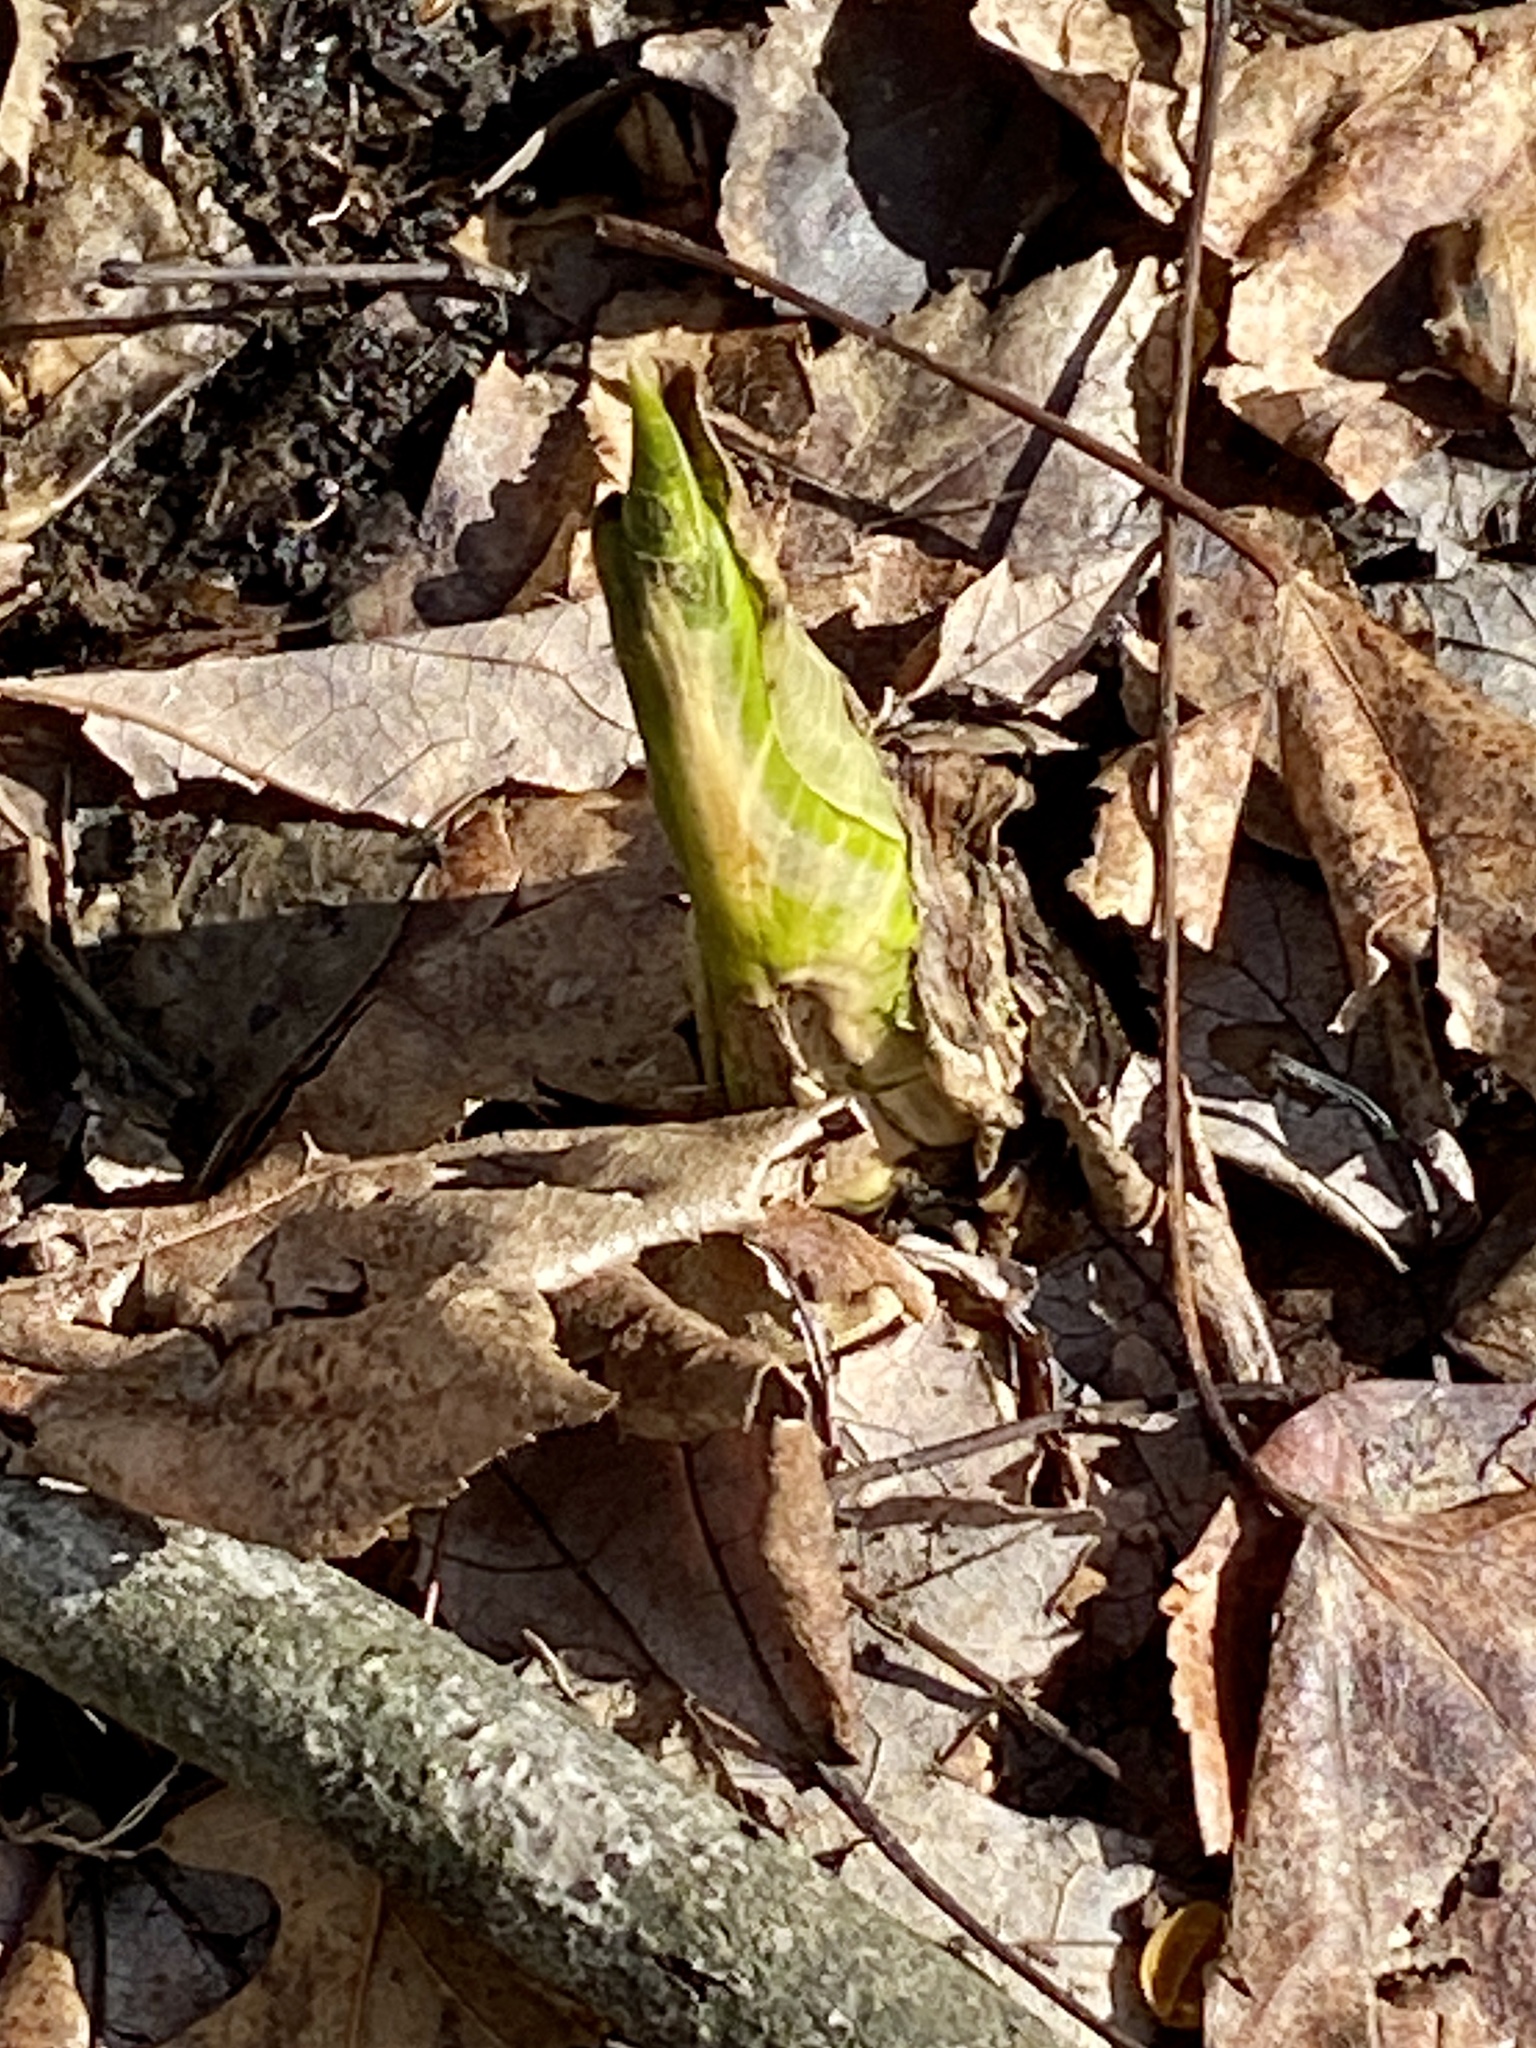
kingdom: Plantae
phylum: Tracheophyta
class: Liliopsida
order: Alismatales
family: Araceae
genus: Symplocarpus
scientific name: Symplocarpus foetidus
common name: Eastern skunk cabbage
